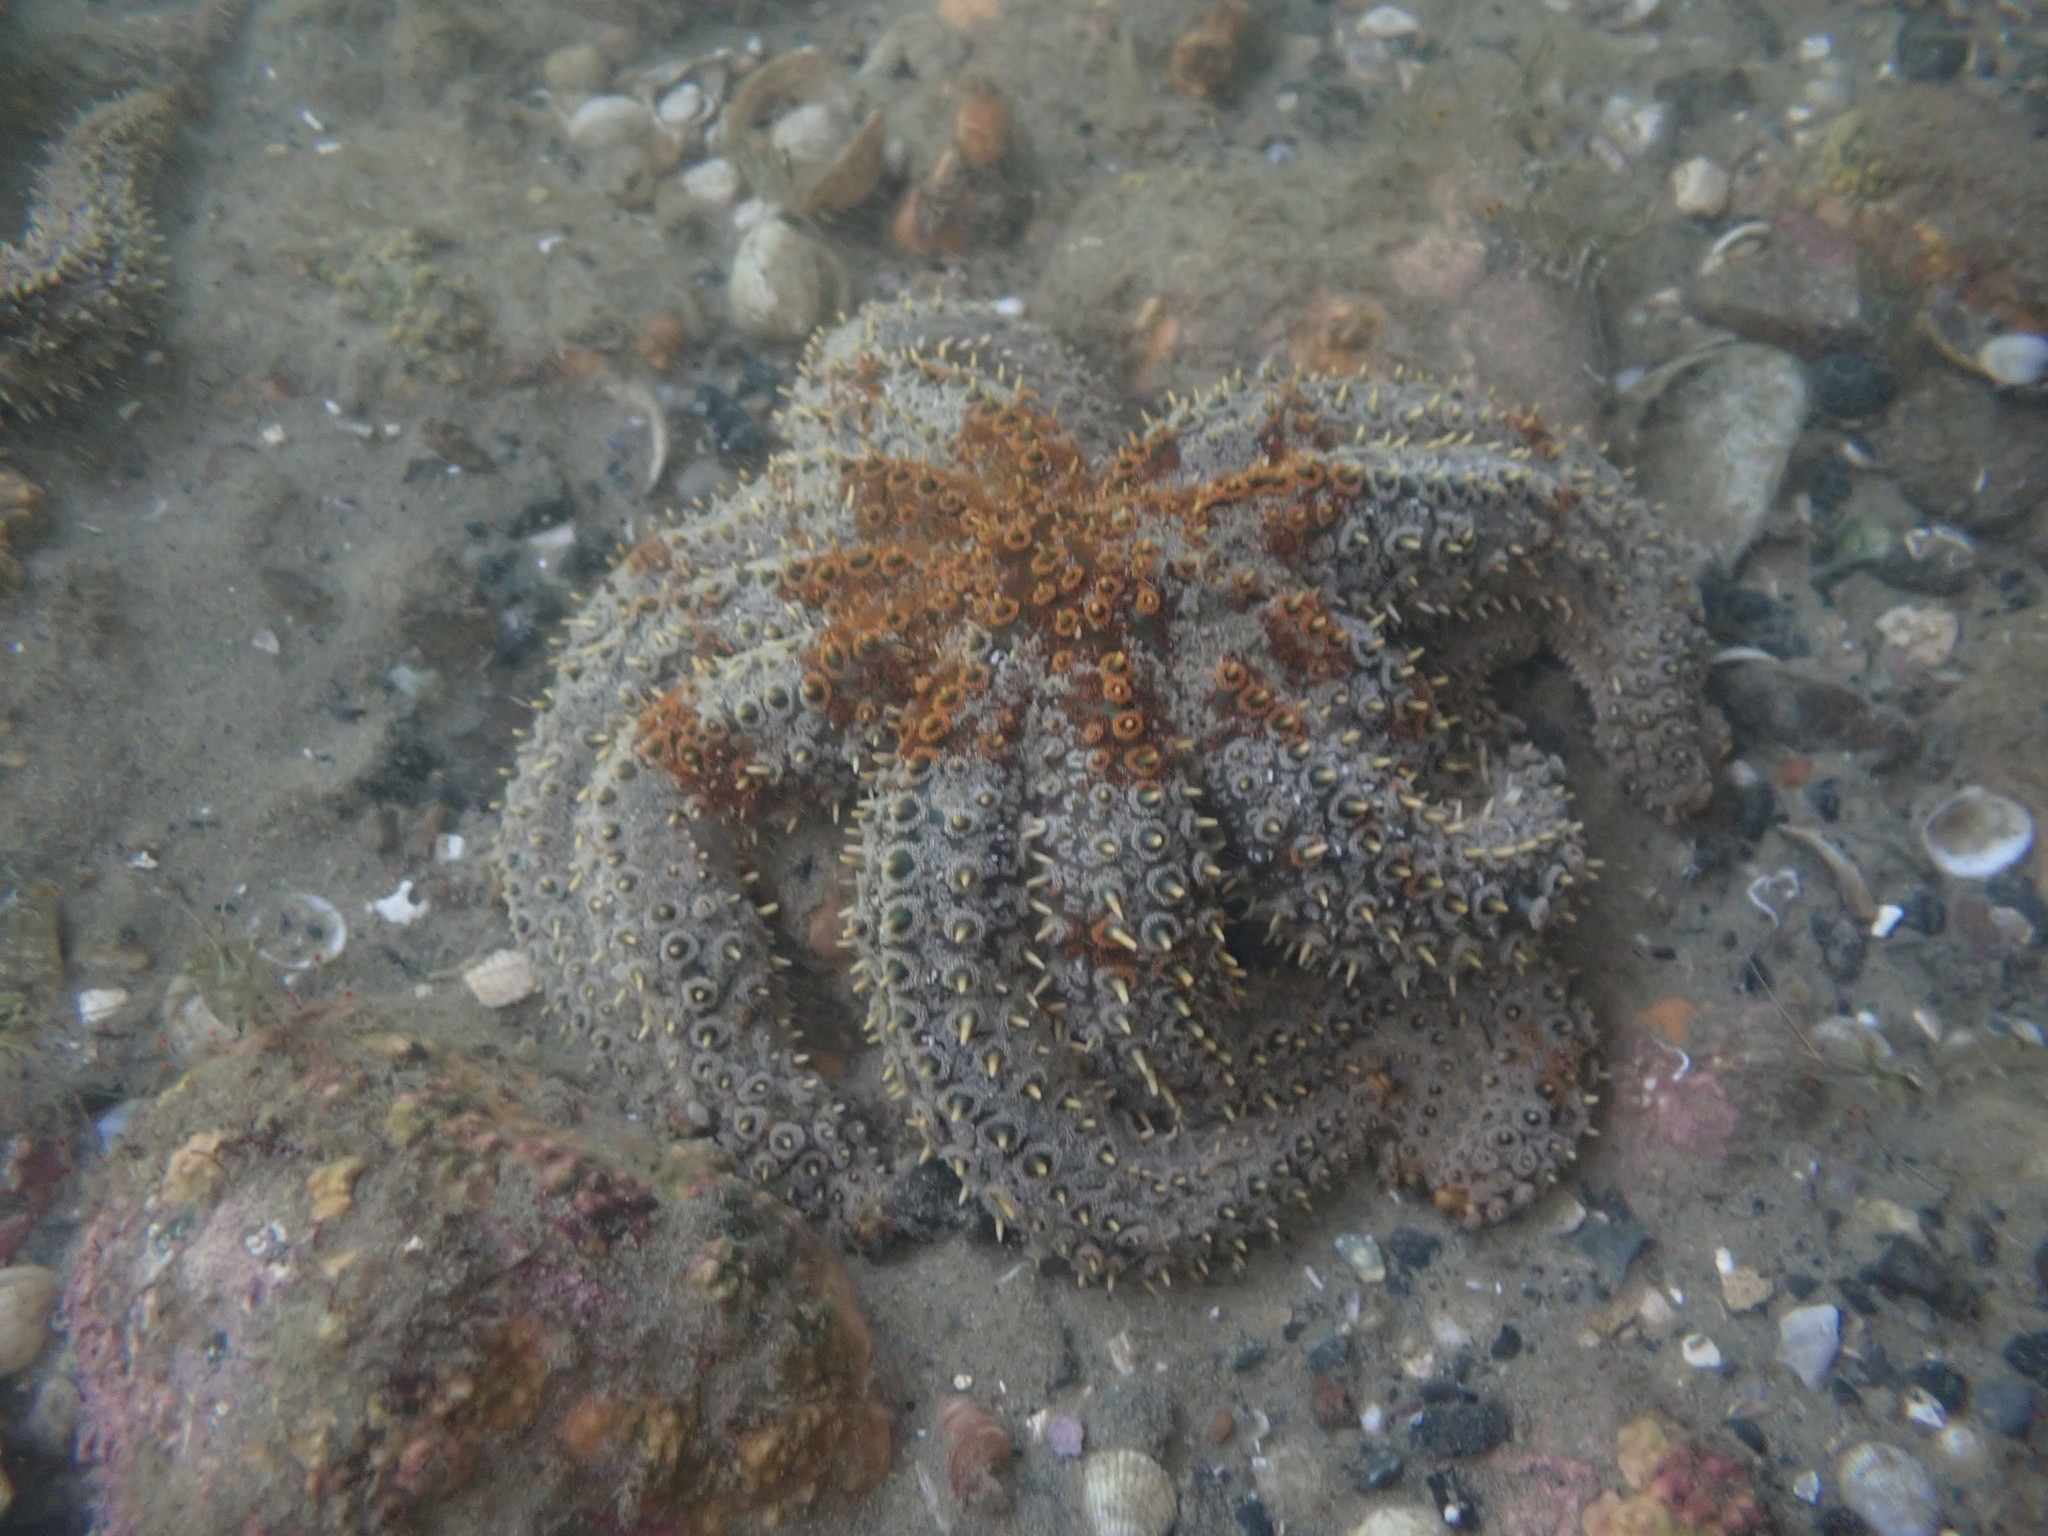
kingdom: Animalia
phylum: Echinodermata
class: Asteroidea
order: Forcipulatida
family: Asteriidae
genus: Coscinasterias
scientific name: Coscinasterias muricata
